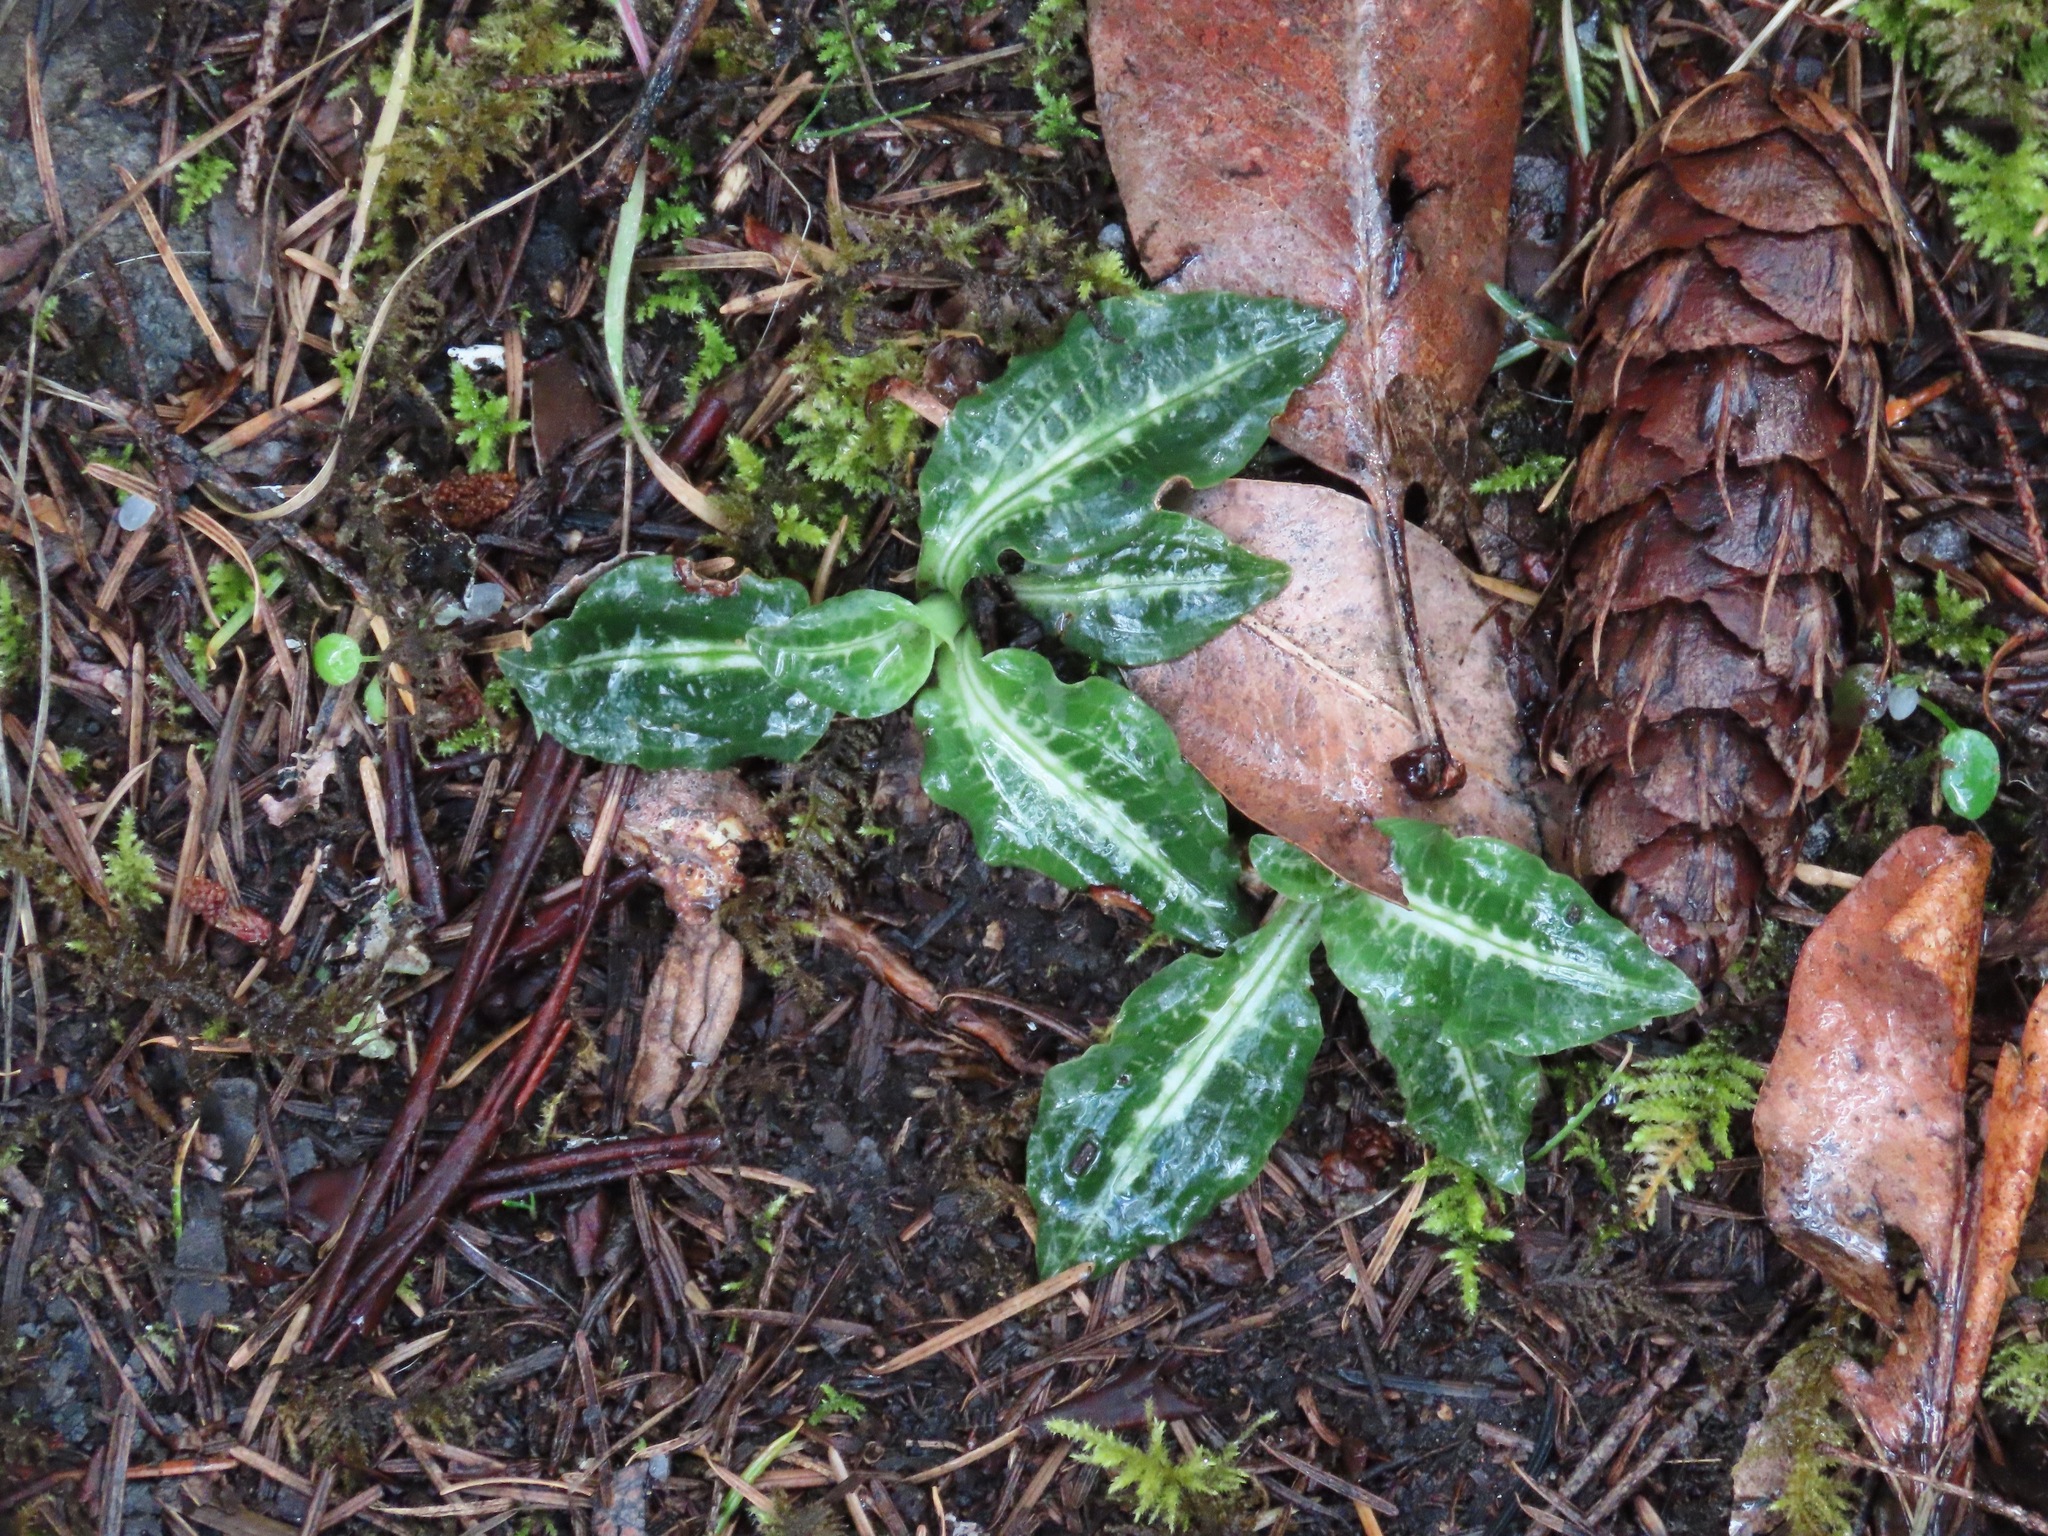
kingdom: Plantae
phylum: Tracheophyta
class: Liliopsida
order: Asparagales
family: Orchidaceae
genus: Goodyera
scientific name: Goodyera oblongifolia
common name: Giant rattlesnake-plantain
